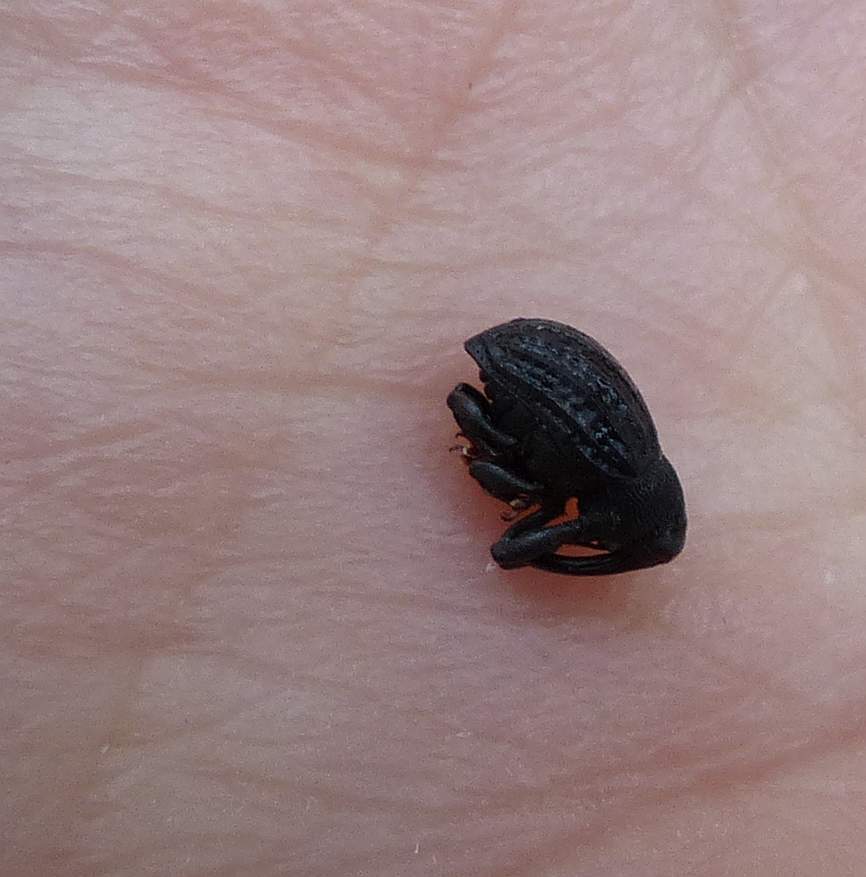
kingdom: Animalia
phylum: Arthropoda
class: Insecta
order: Coleoptera
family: Curculionidae
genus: Rhyssomatus
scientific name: Rhyssomatus lineaticollis
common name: Milkweed stem weevil
